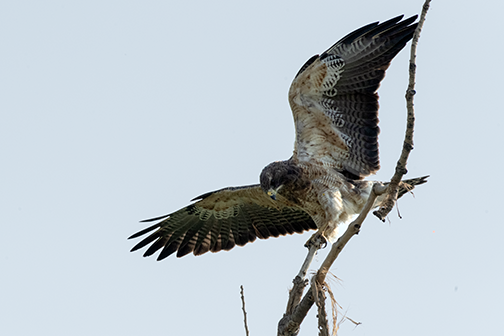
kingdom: Animalia
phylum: Chordata
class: Aves
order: Accipitriformes
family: Accipitridae
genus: Buteo
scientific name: Buteo swainsoni
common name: Swainson's hawk
